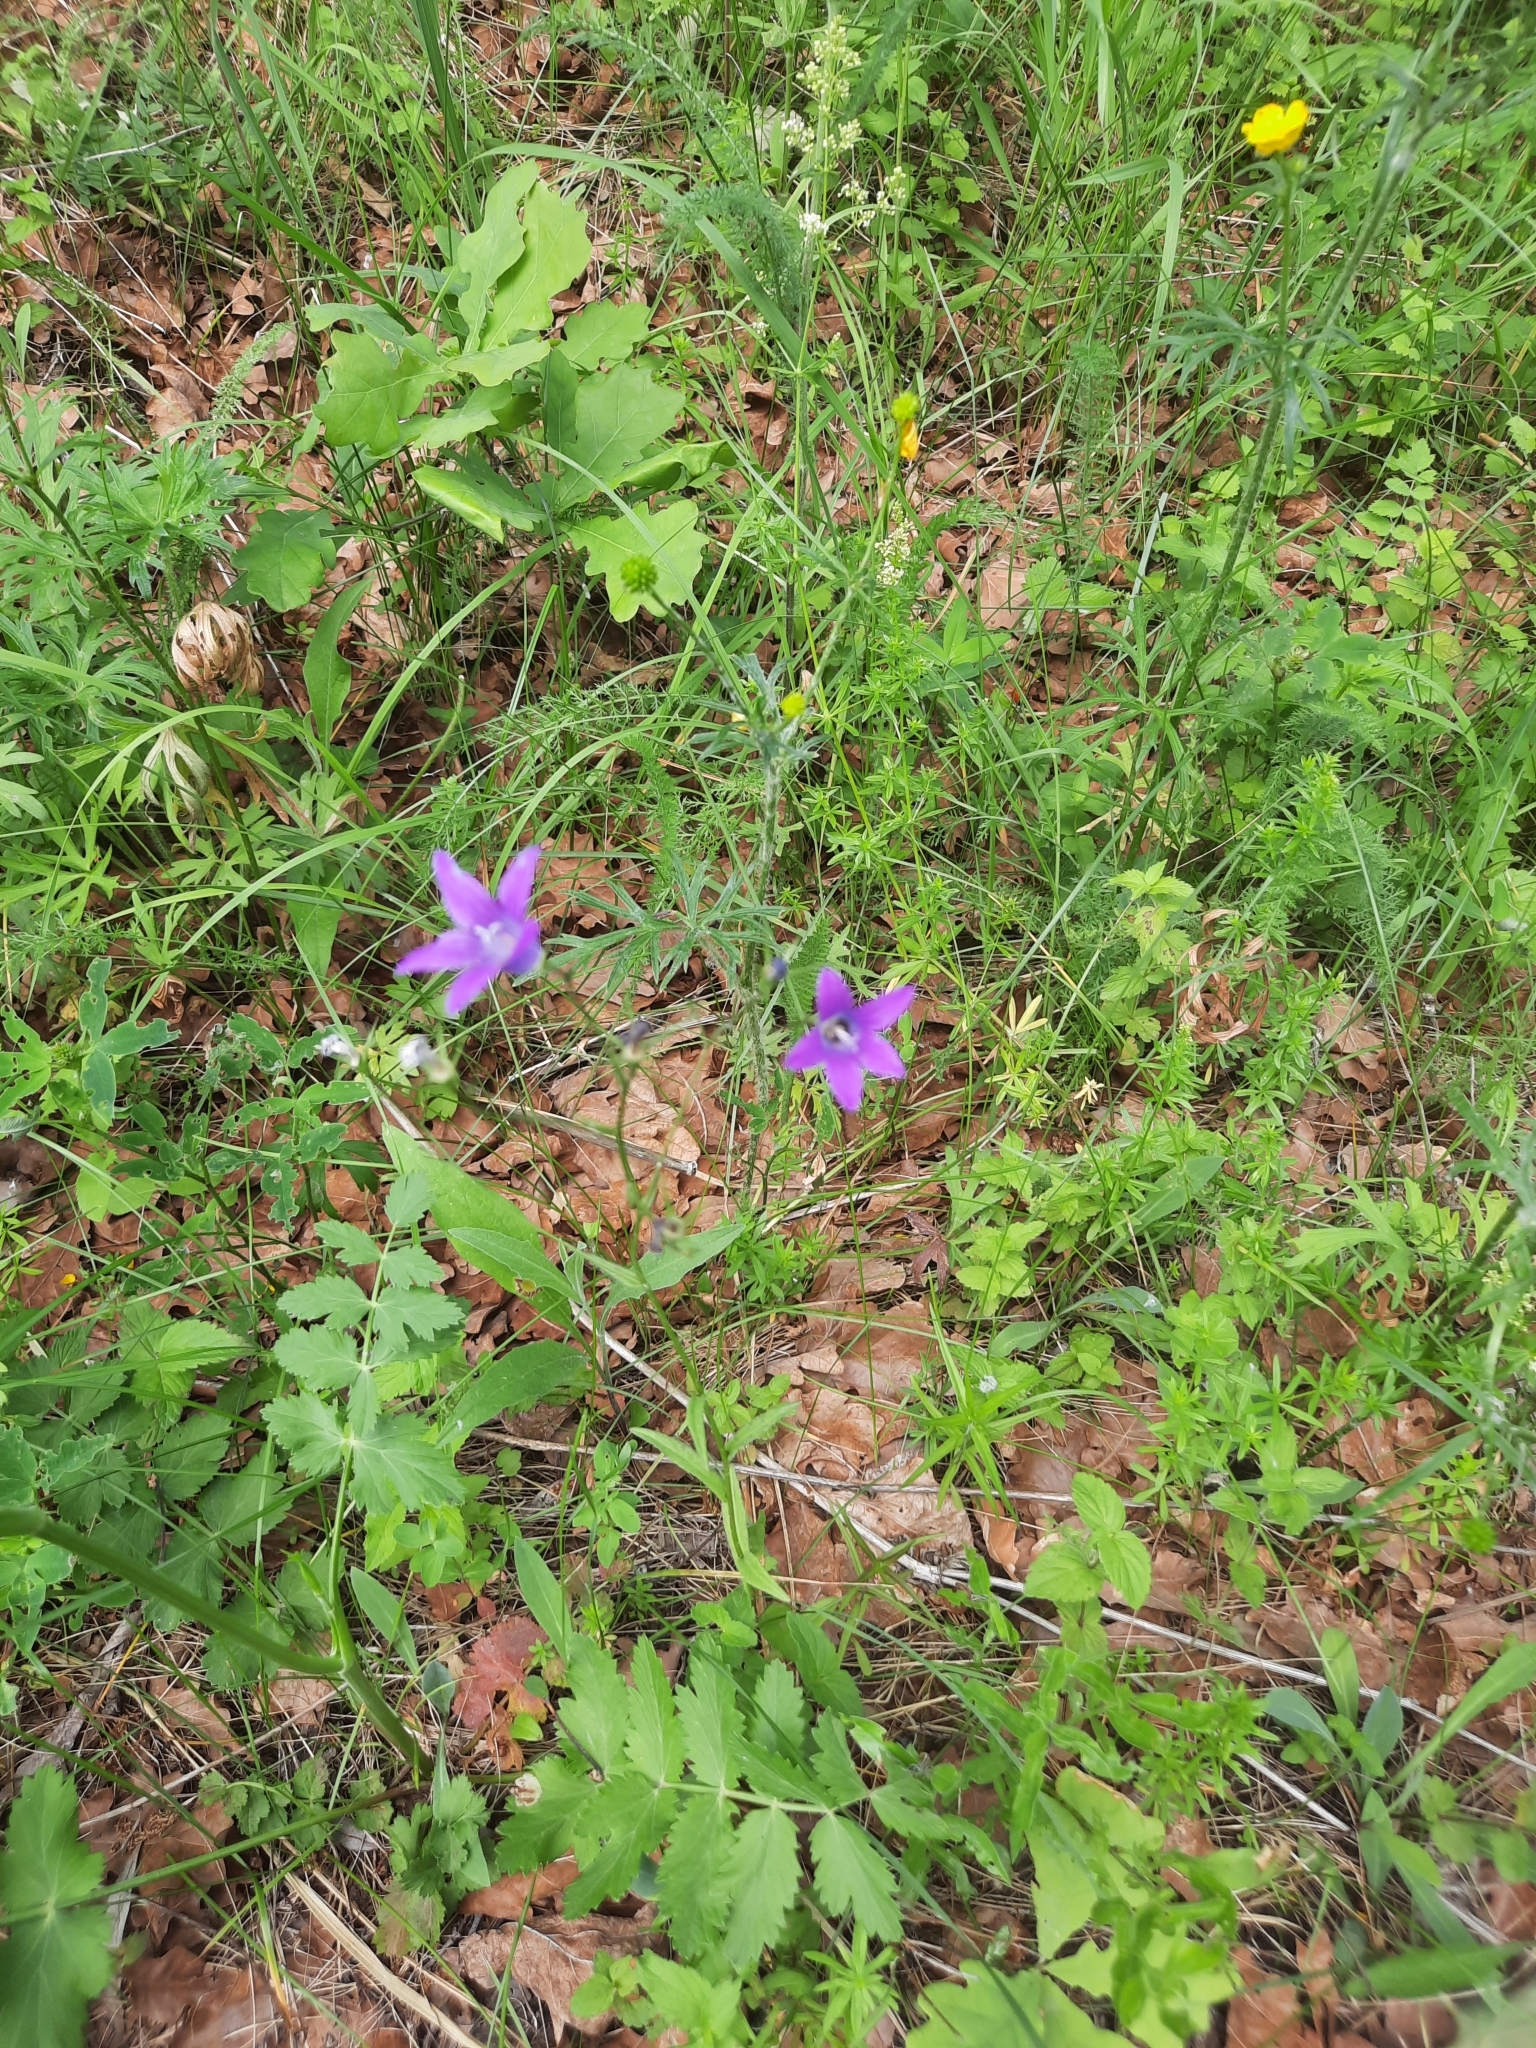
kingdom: Plantae
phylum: Tracheophyta
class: Magnoliopsida
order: Asterales
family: Campanulaceae
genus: Campanula
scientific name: Campanula patula
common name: Spreading bellflower
